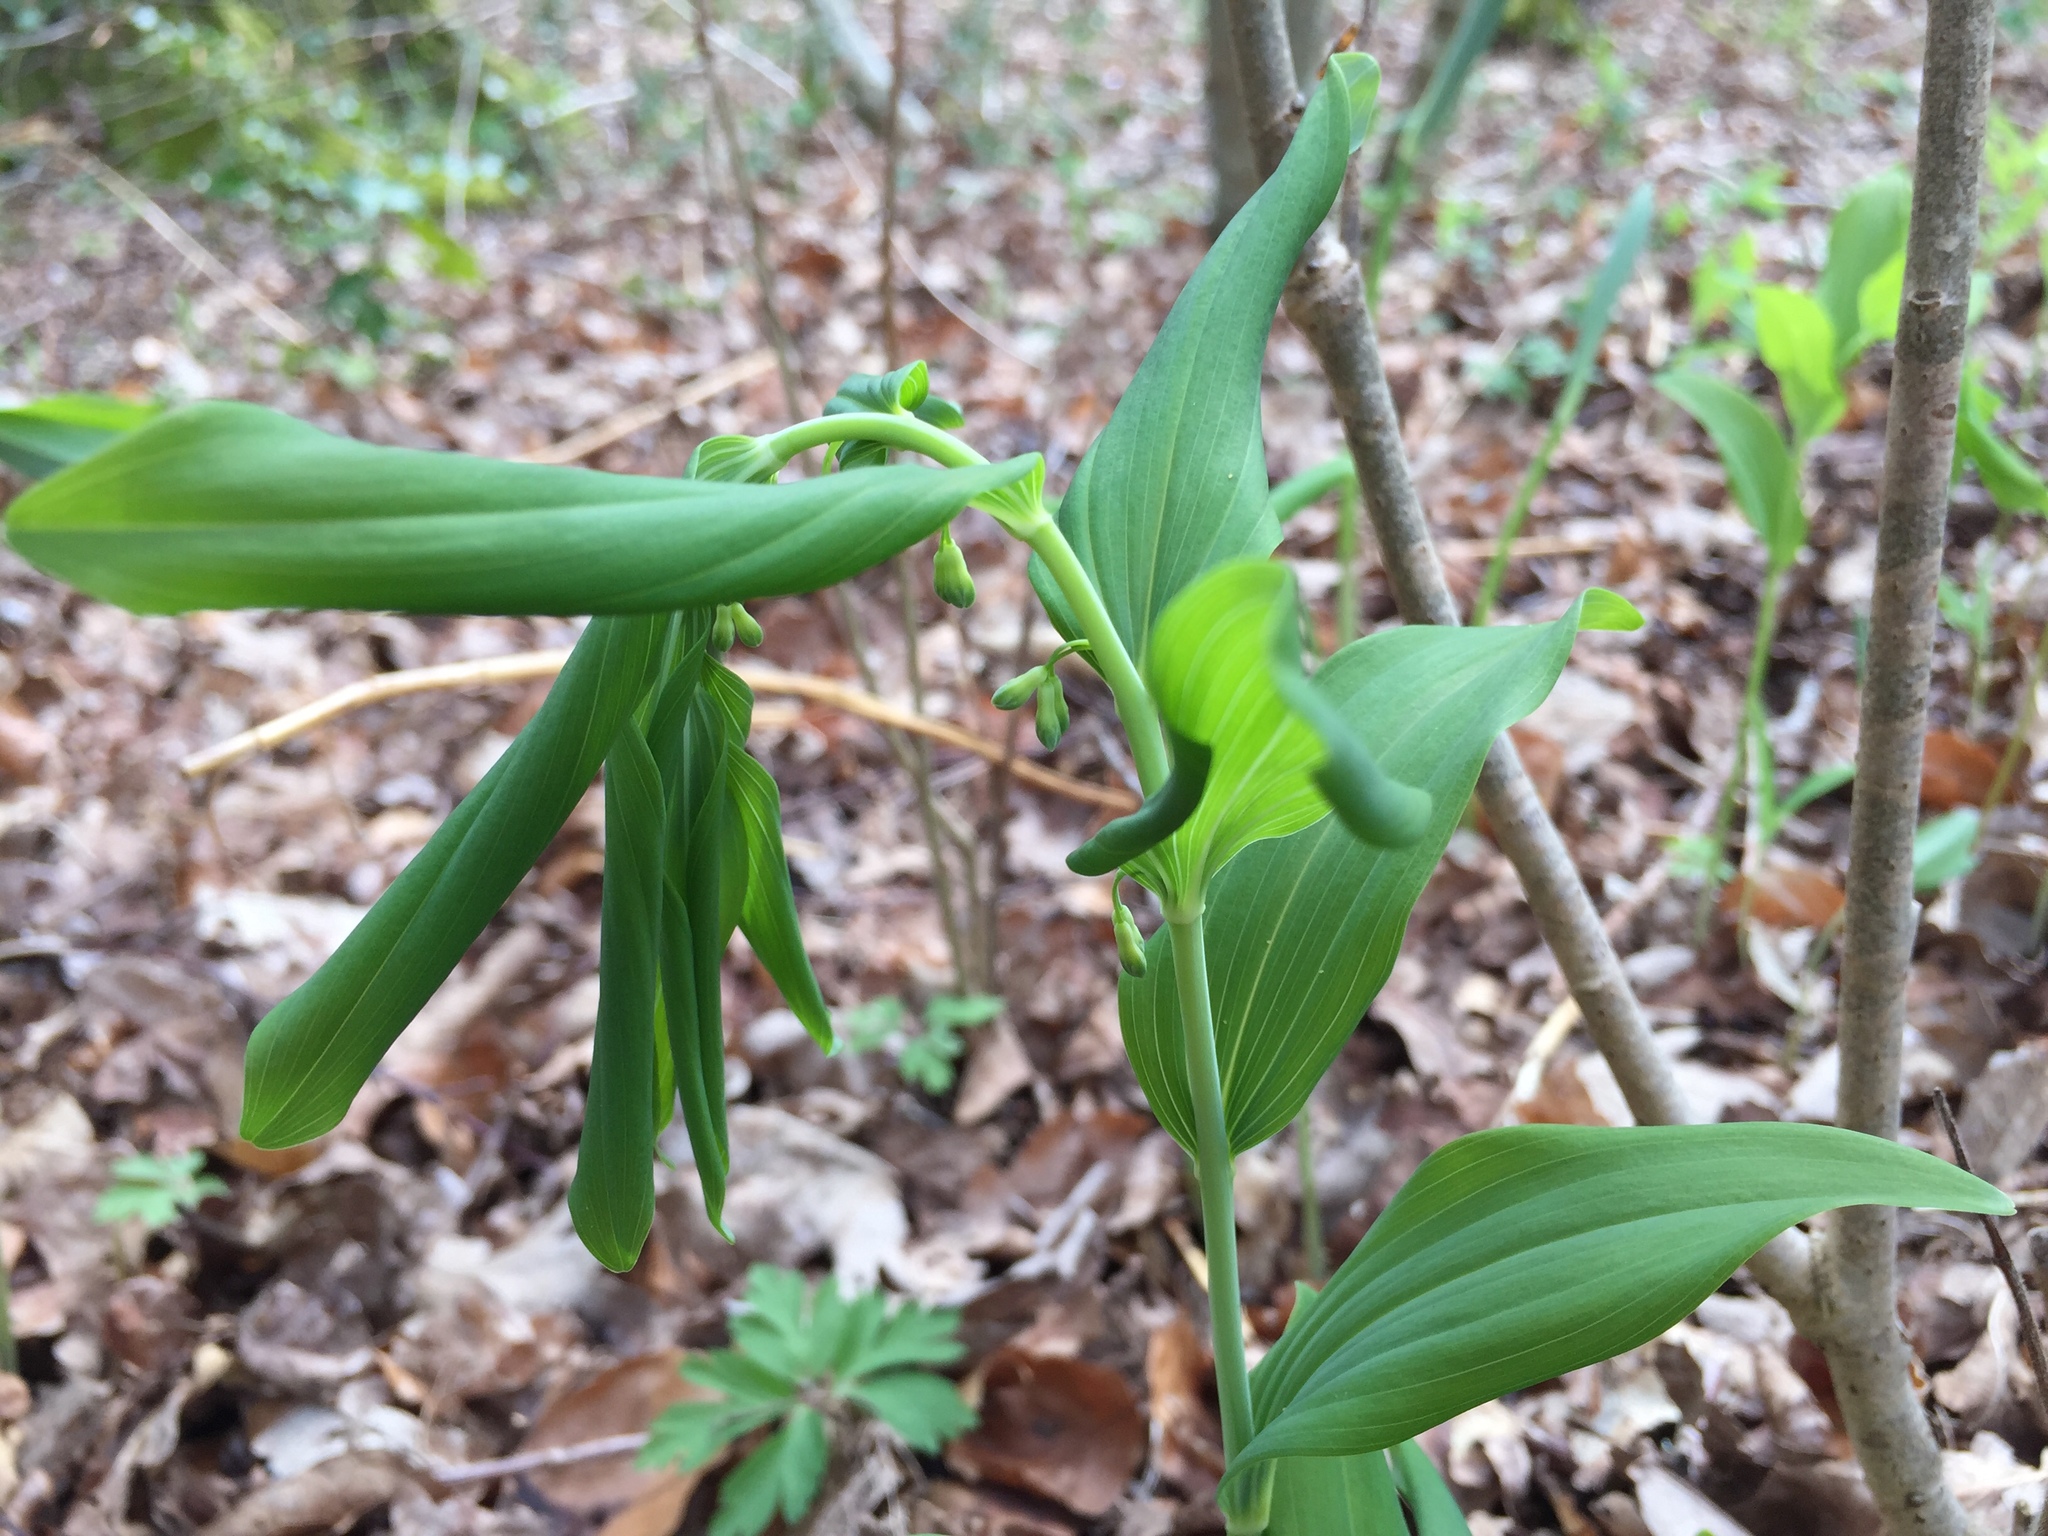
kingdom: Plantae
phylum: Tracheophyta
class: Liliopsida
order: Asparagales
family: Asparagaceae
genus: Polygonatum
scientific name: Polygonatum multiflorum
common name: Solomon's-seal
